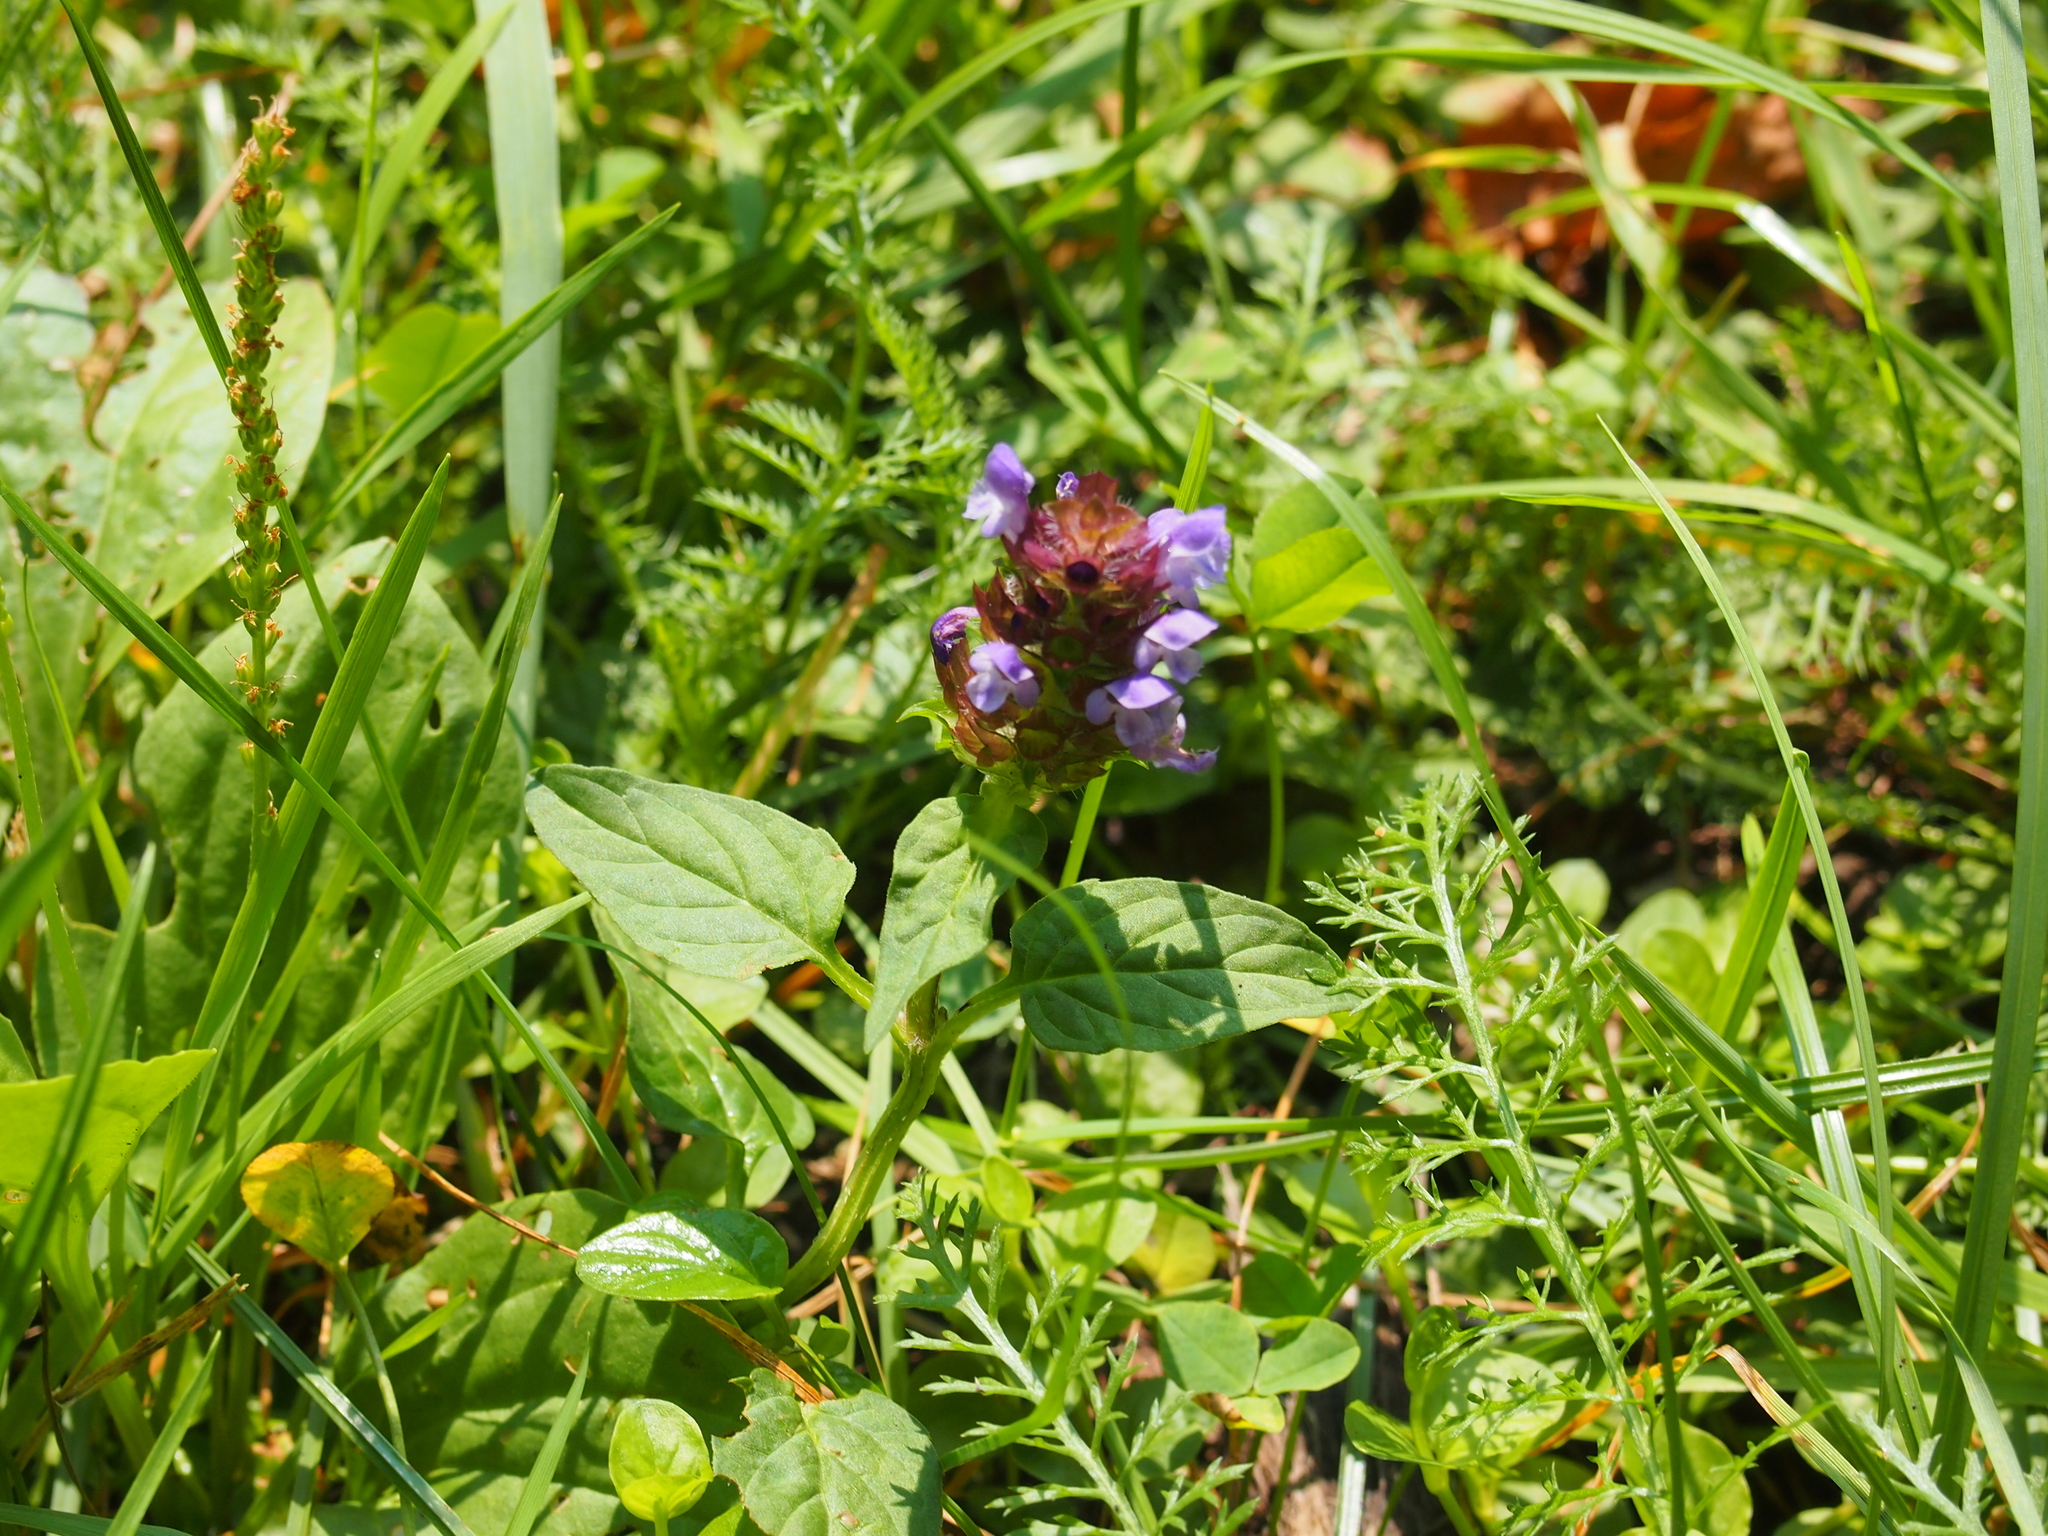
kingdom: Plantae
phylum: Tracheophyta
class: Magnoliopsida
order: Lamiales
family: Lamiaceae
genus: Prunella
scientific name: Prunella vulgaris
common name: Heal-all
